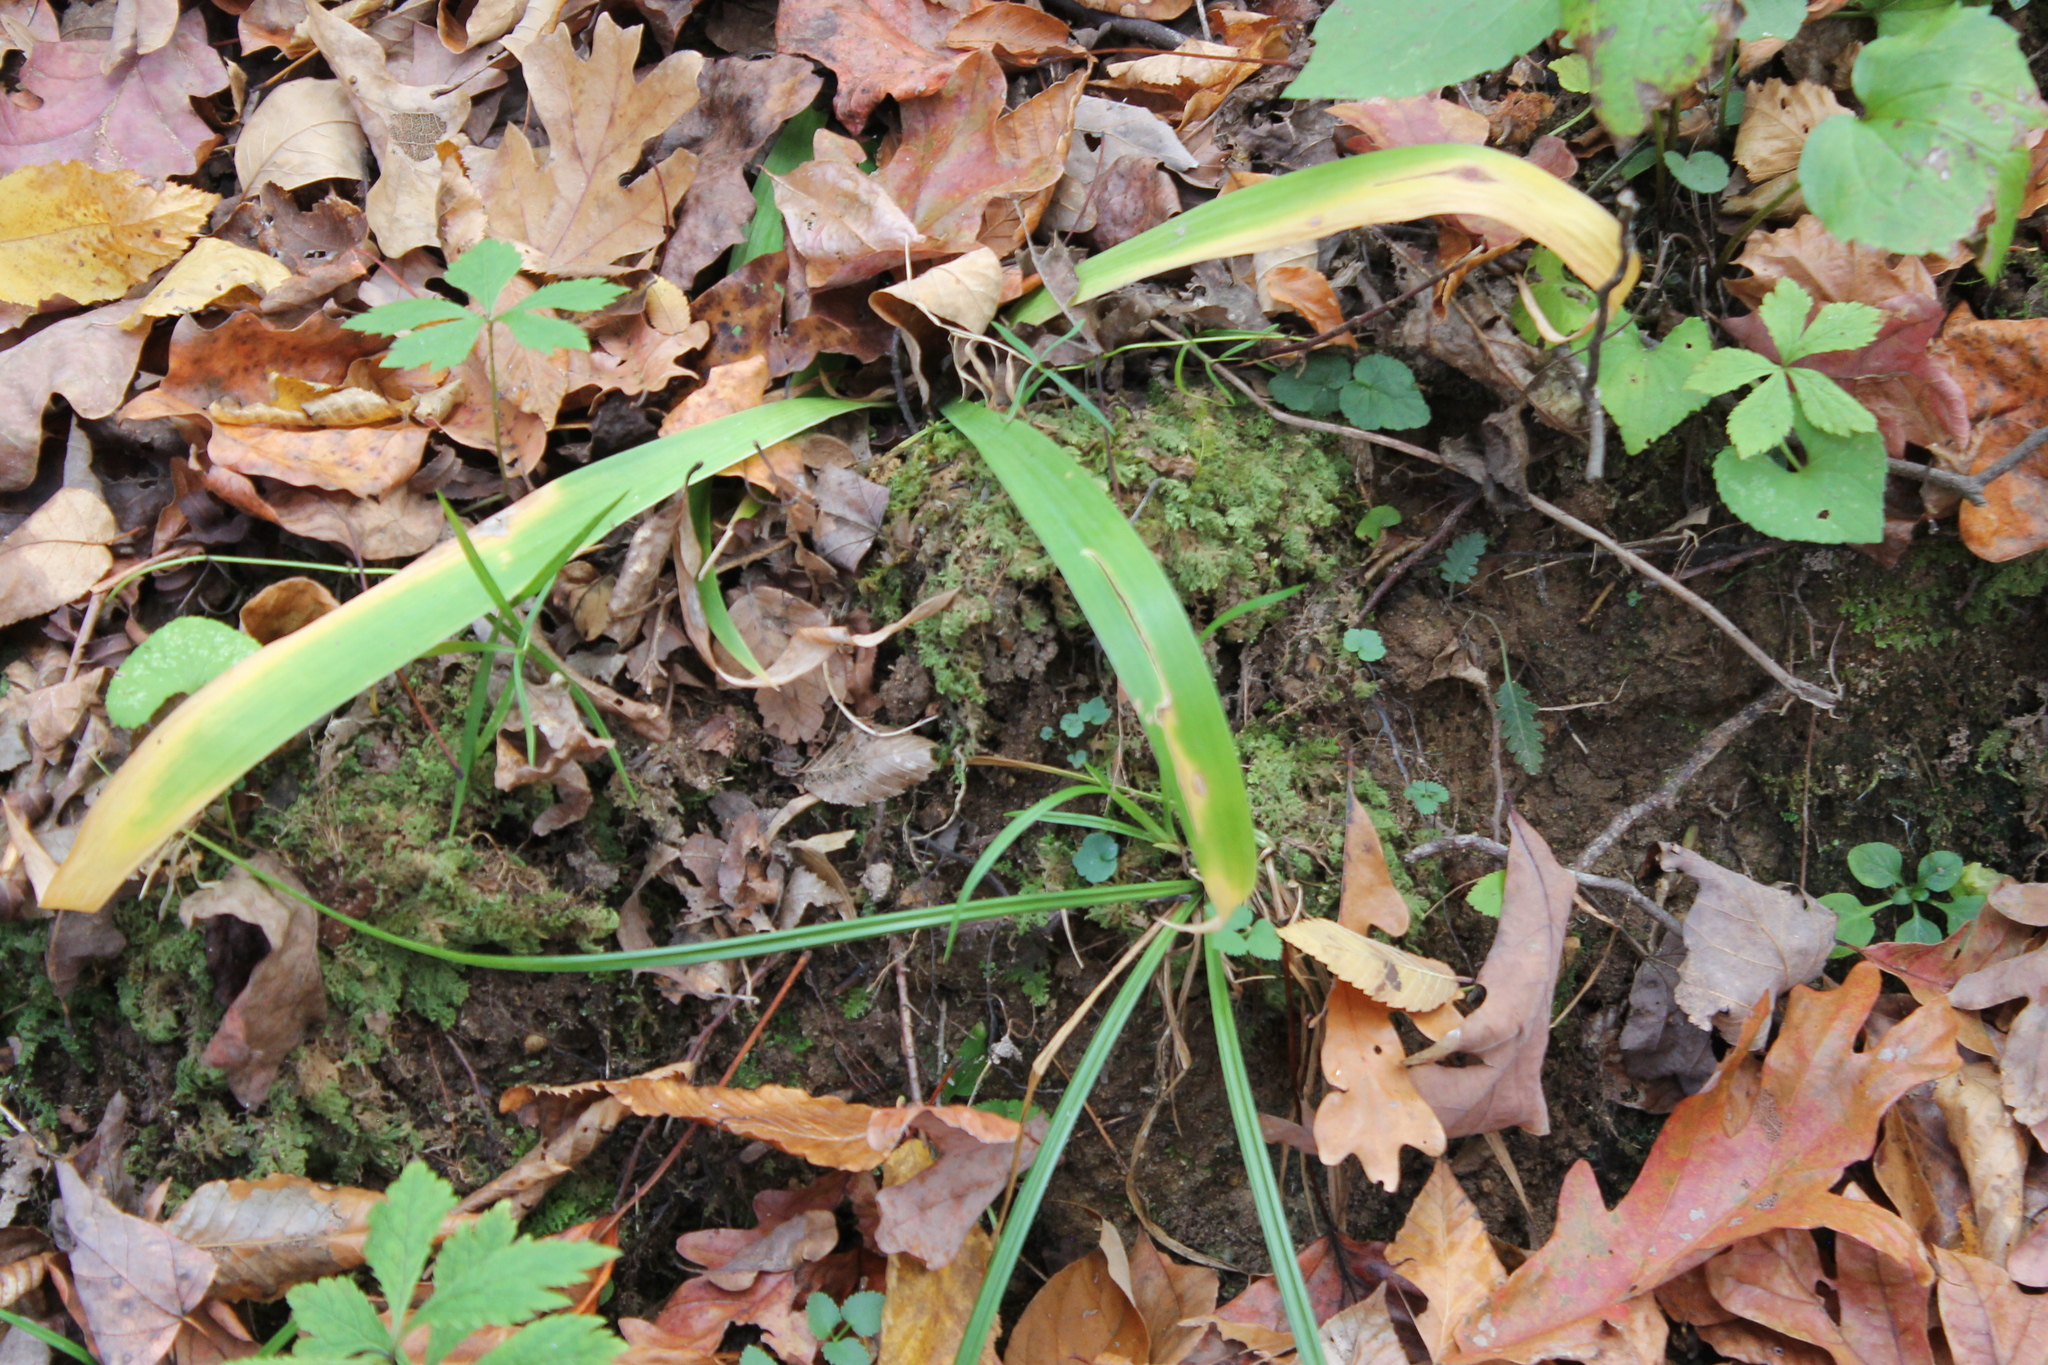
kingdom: Plantae
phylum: Tracheophyta
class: Liliopsida
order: Liliales
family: Melanthiaceae
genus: Stenanthium
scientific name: Stenanthium gramineum
